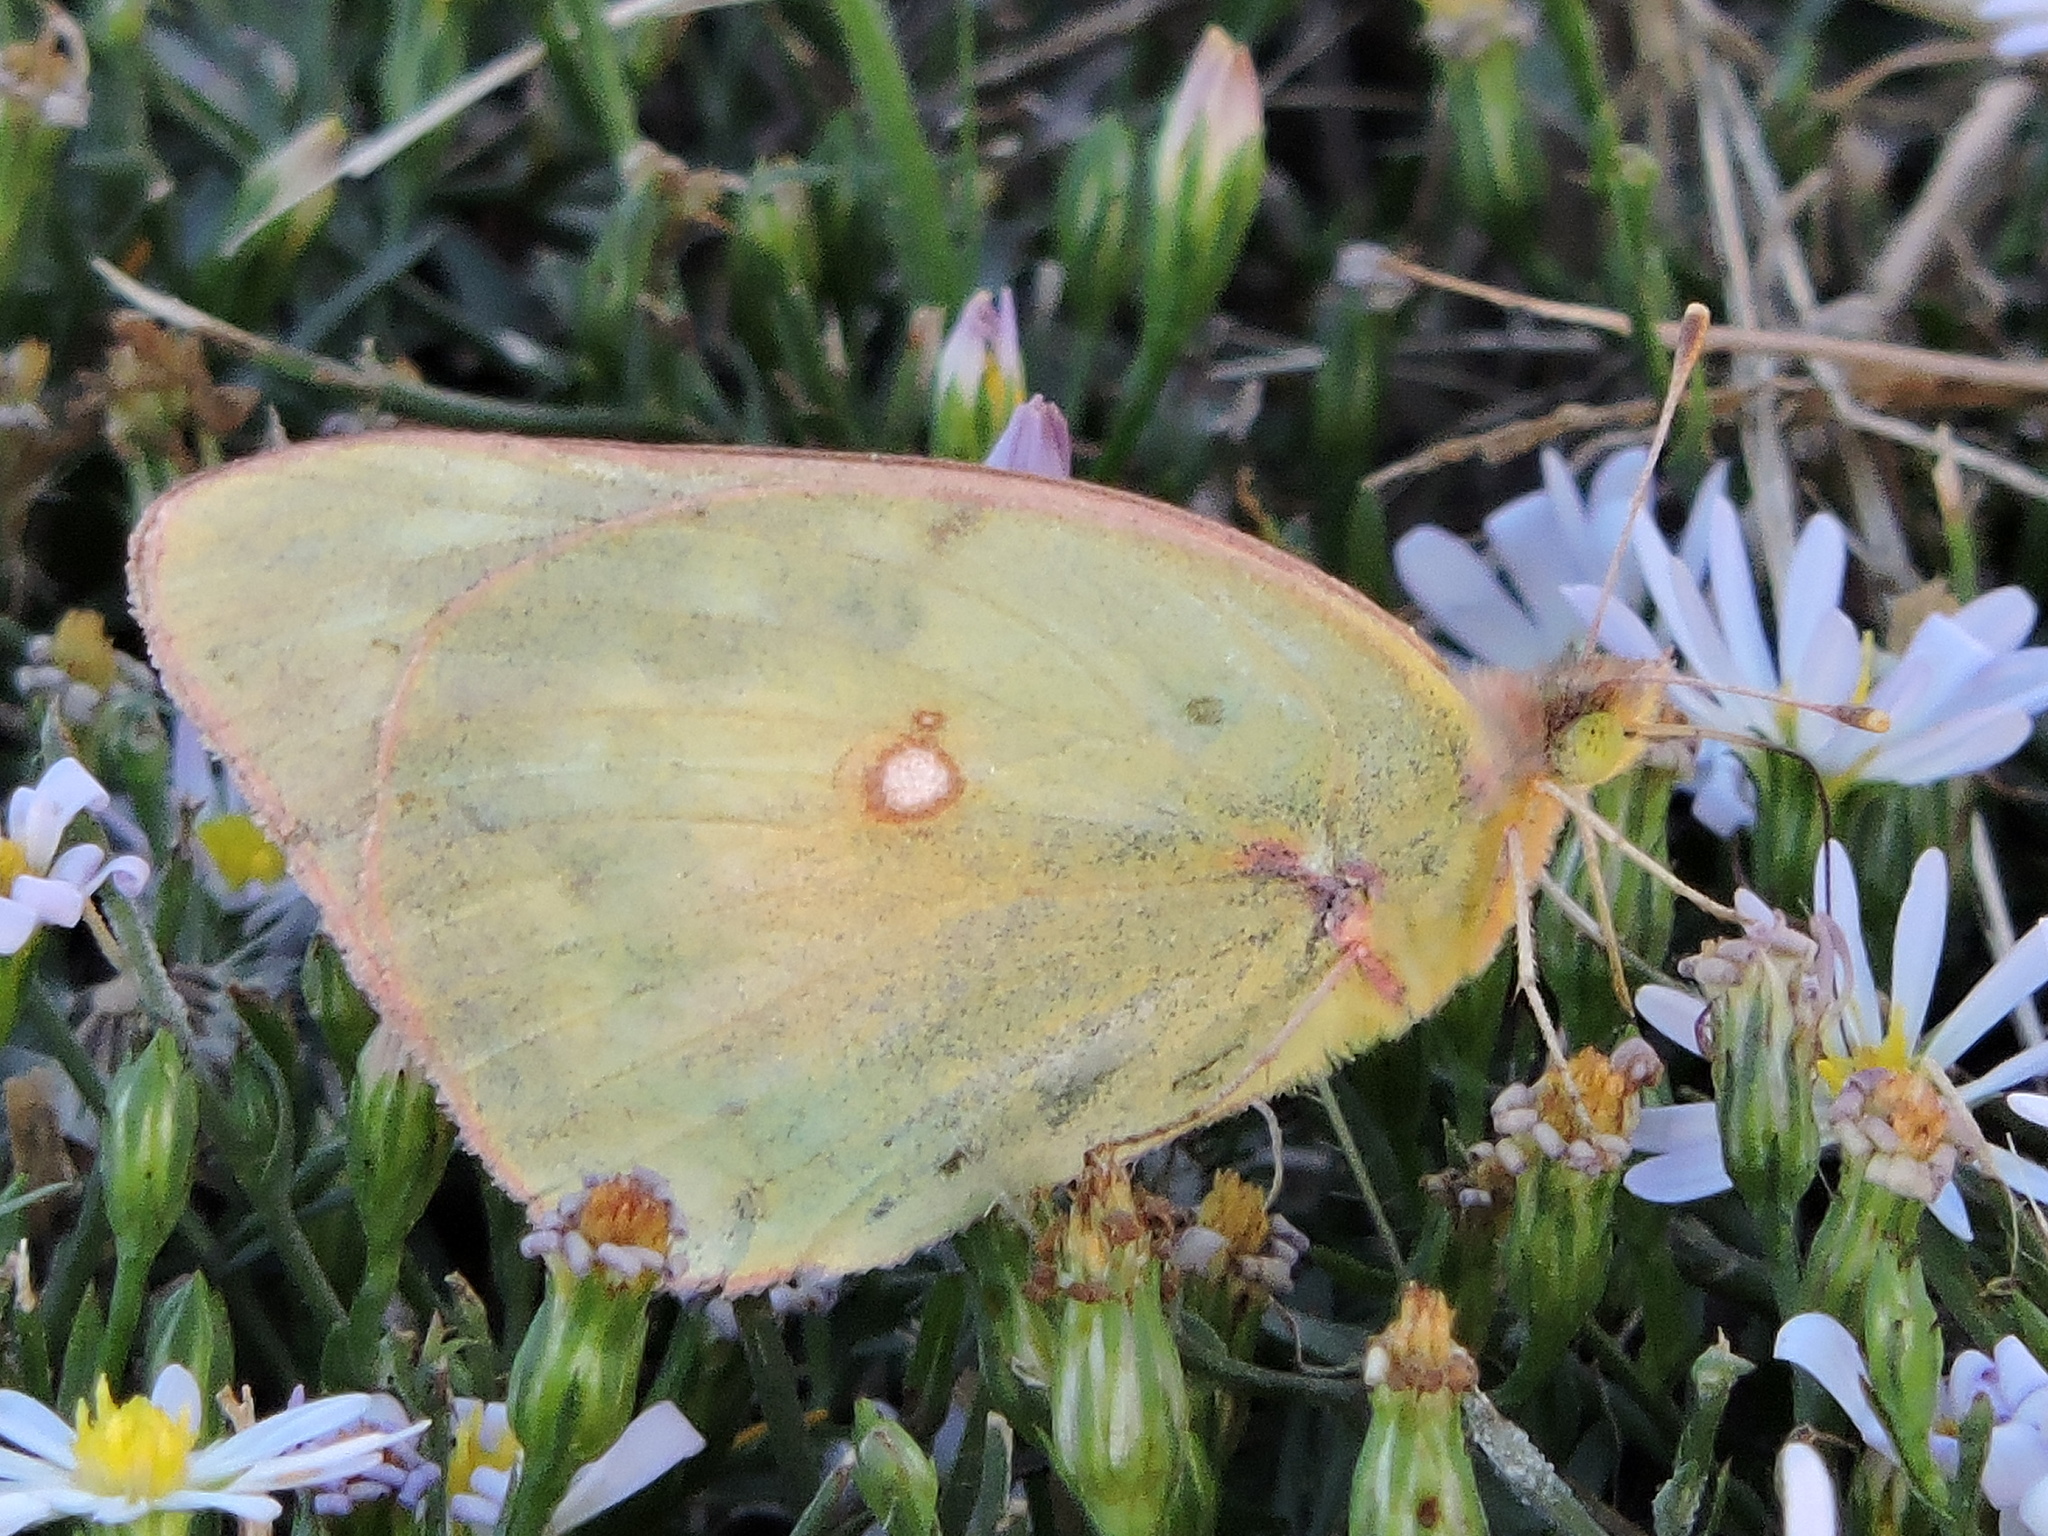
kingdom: Animalia
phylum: Arthropoda
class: Insecta
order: Lepidoptera
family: Pieridae
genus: Colias
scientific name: Colias eurytheme
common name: Alfalfa butterfly
